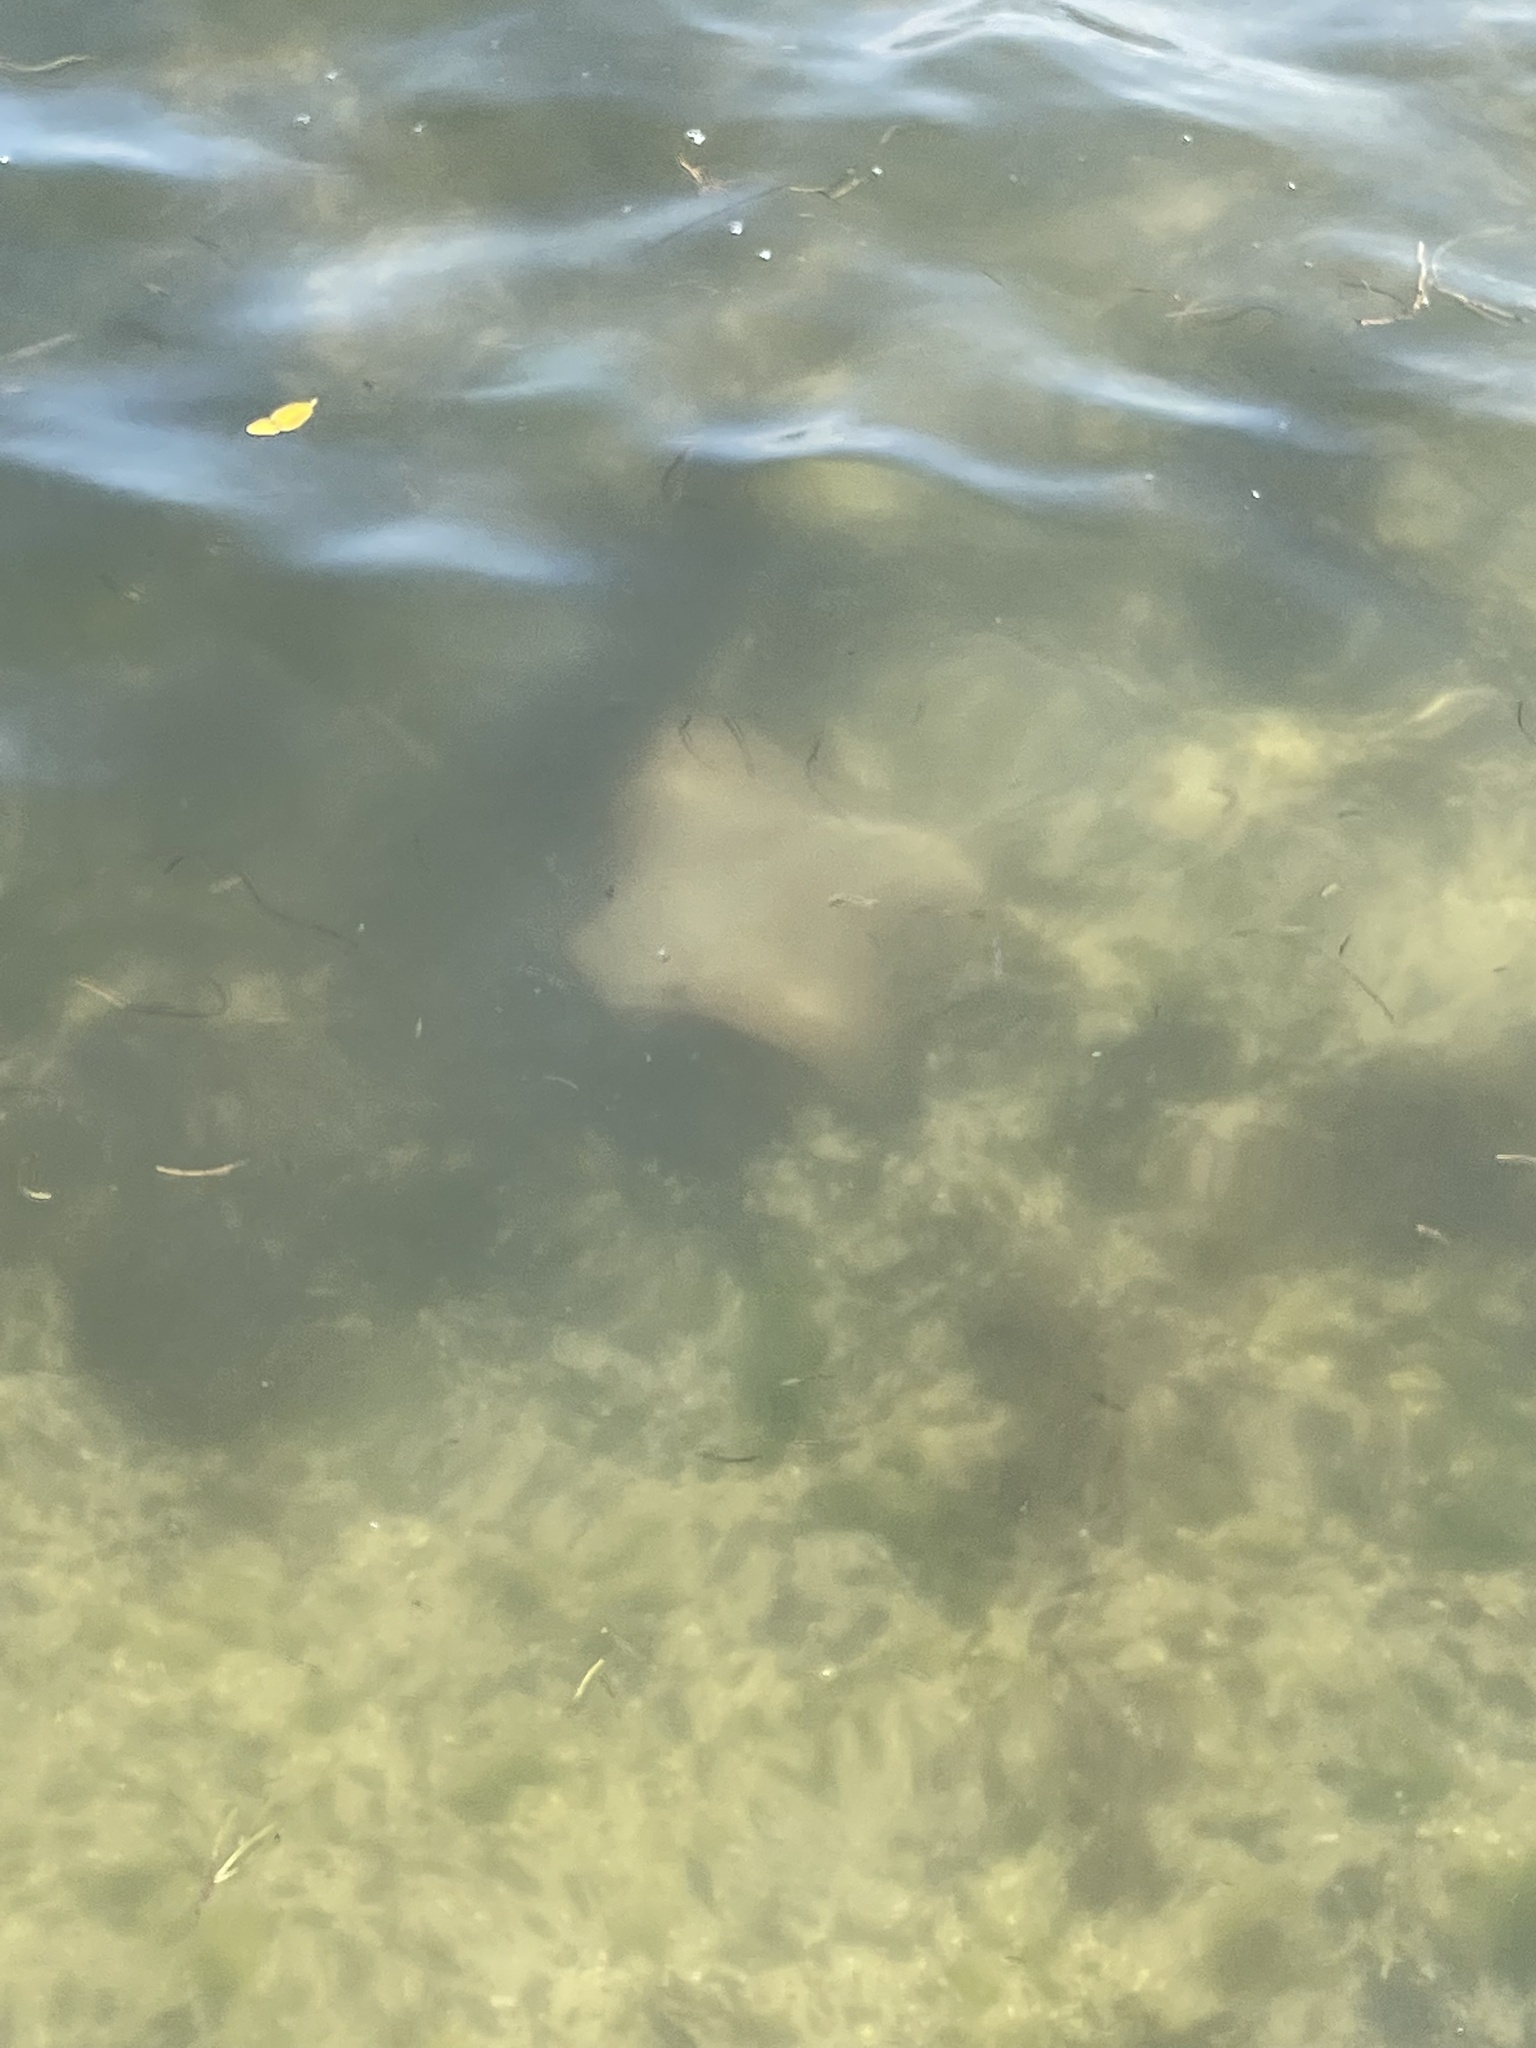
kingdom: Animalia
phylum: Chordata
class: Elasmobranchii
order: Myliobatiformes
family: Myliobatidae
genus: Rhinoptera
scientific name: Rhinoptera bonasus
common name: Cownose ray
